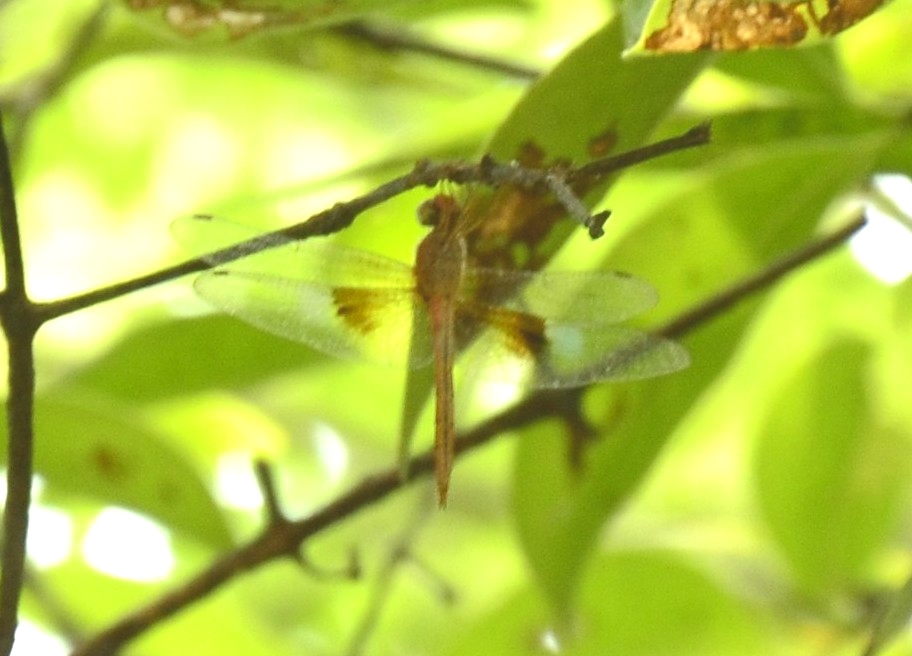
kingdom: Animalia
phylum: Arthropoda
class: Insecta
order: Odonata
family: Libellulidae
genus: Tholymis
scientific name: Tholymis tillarga
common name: Coral-tailed cloud wing
